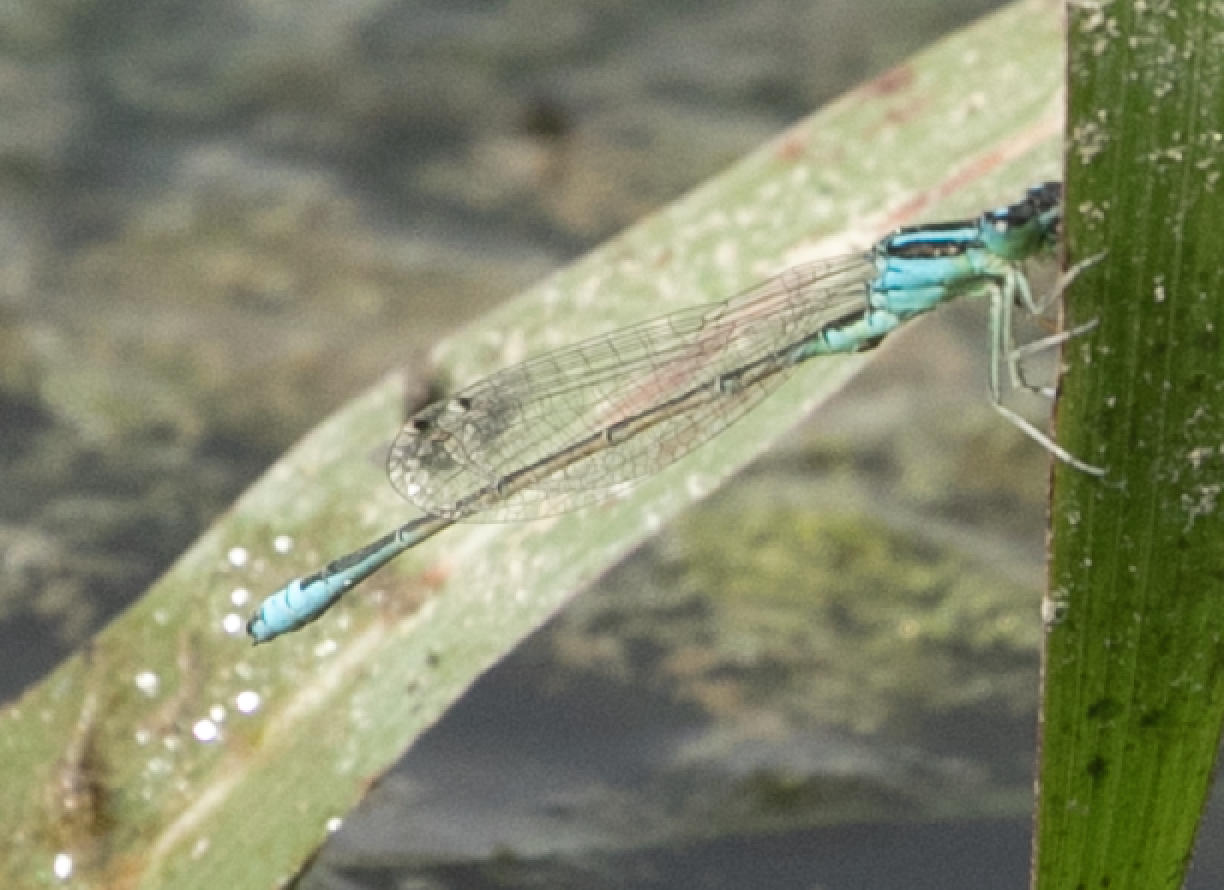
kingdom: Animalia
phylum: Arthropoda
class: Insecta
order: Odonata
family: Coenagrionidae
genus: Ischnura
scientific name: Ischnura pumilio
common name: Scarce blue-tailed damselfly
